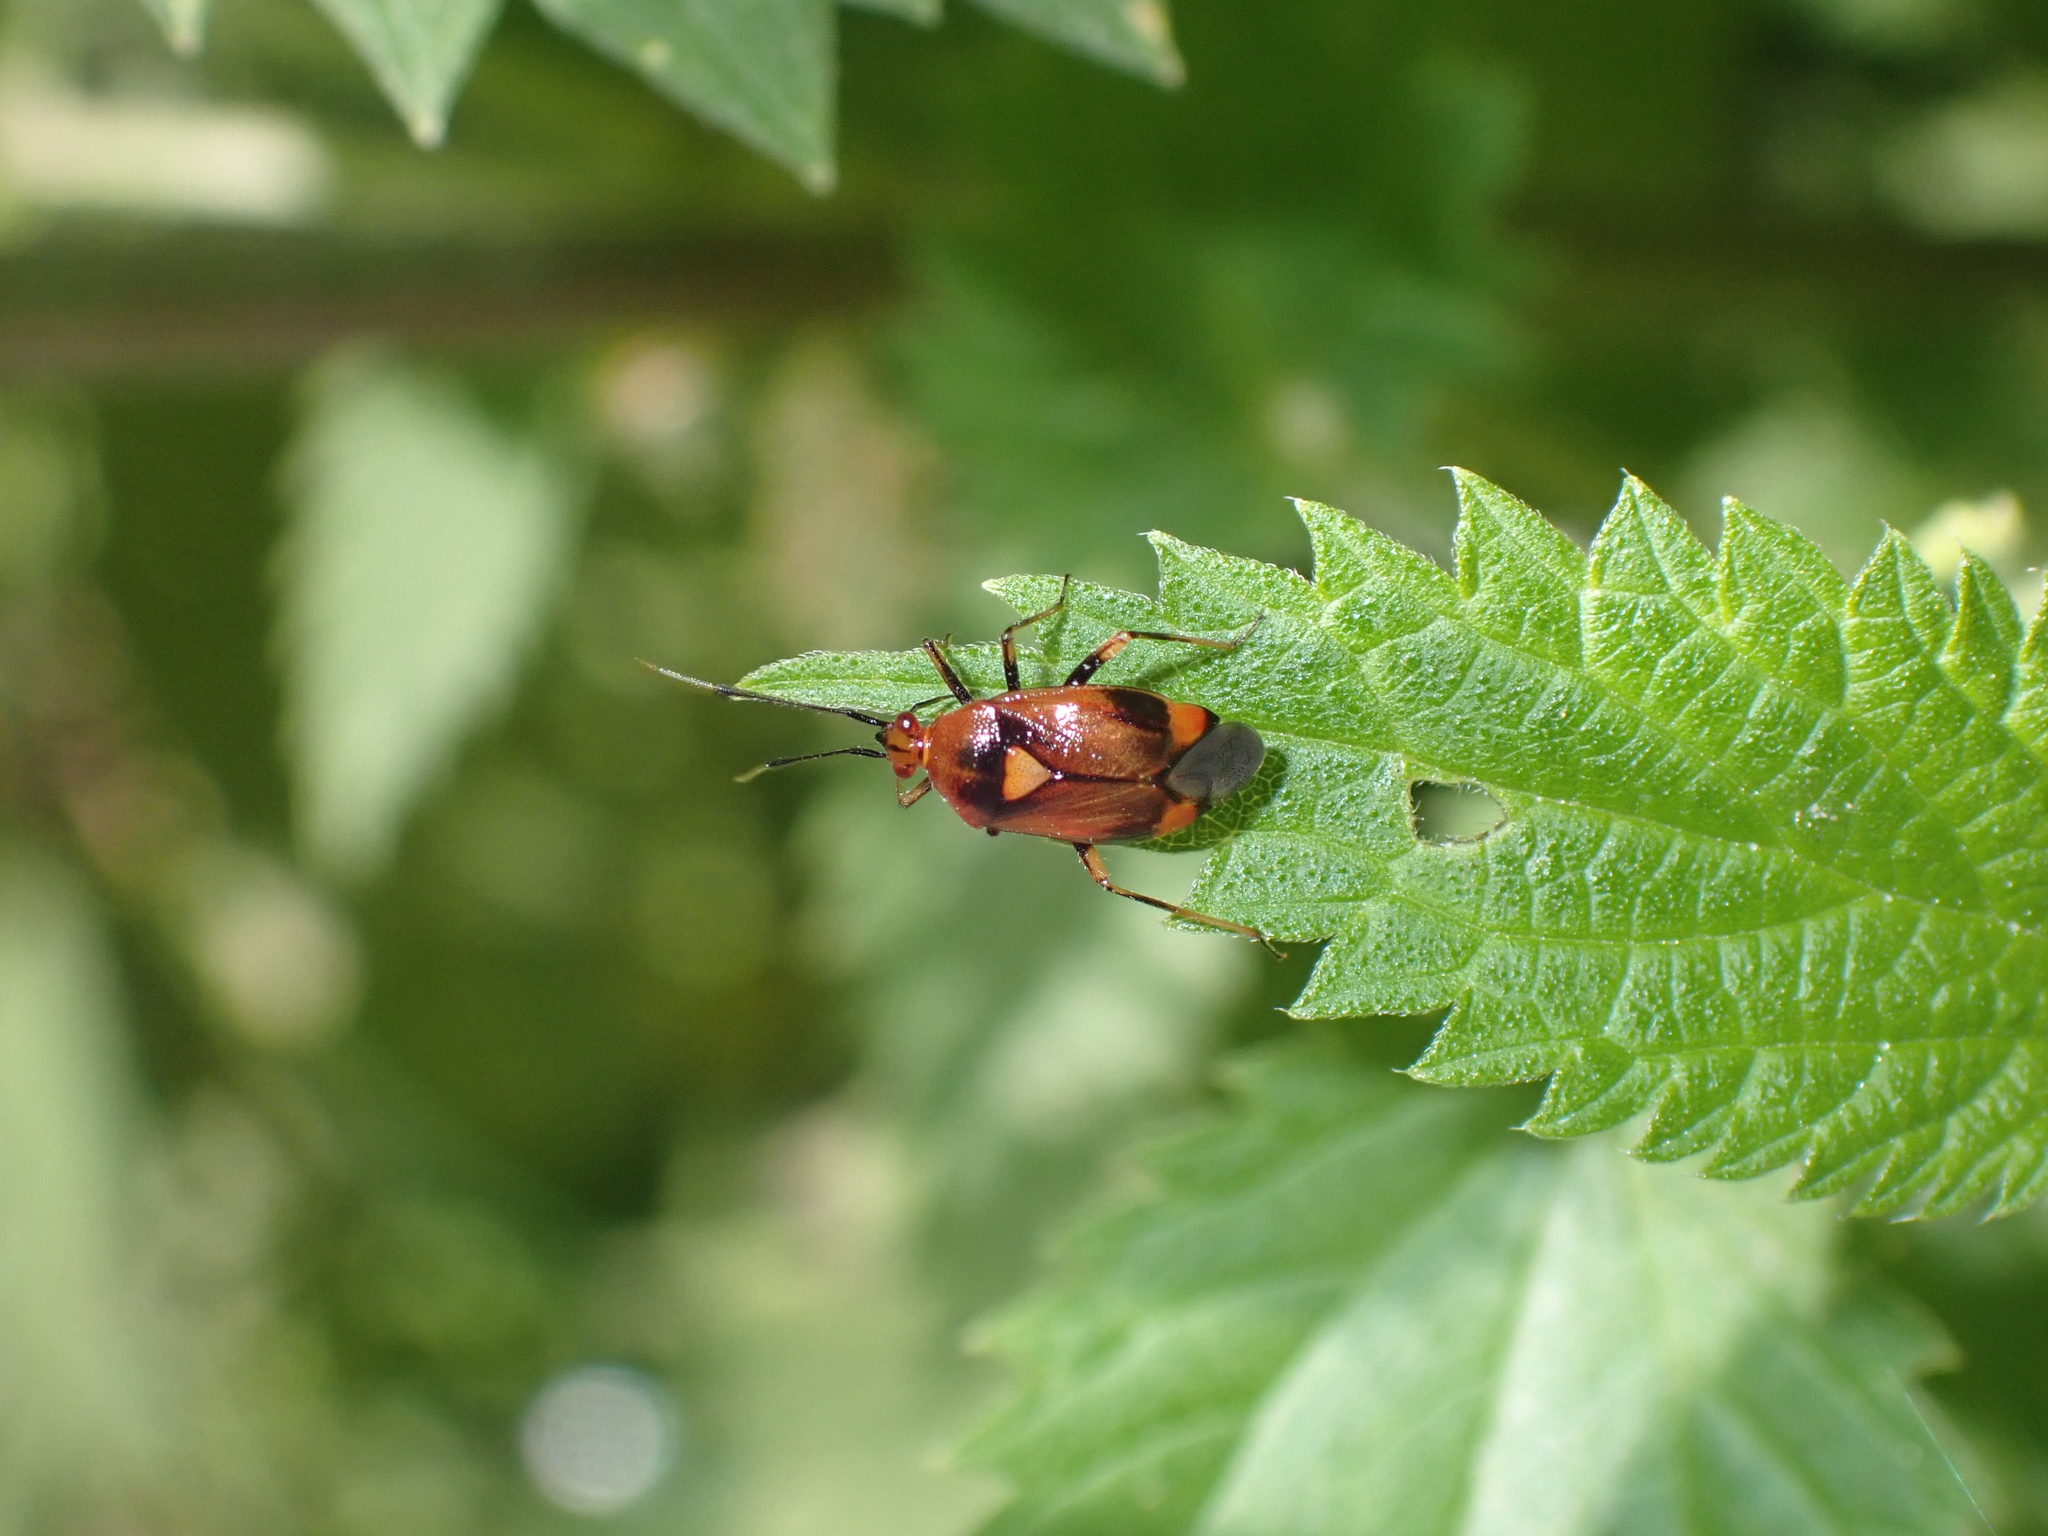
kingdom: Animalia
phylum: Arthropoda
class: Insecta
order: Hemiptera
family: Miridae
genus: Deraeocoris
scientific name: Deraeocoris ruber
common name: Plant bug
